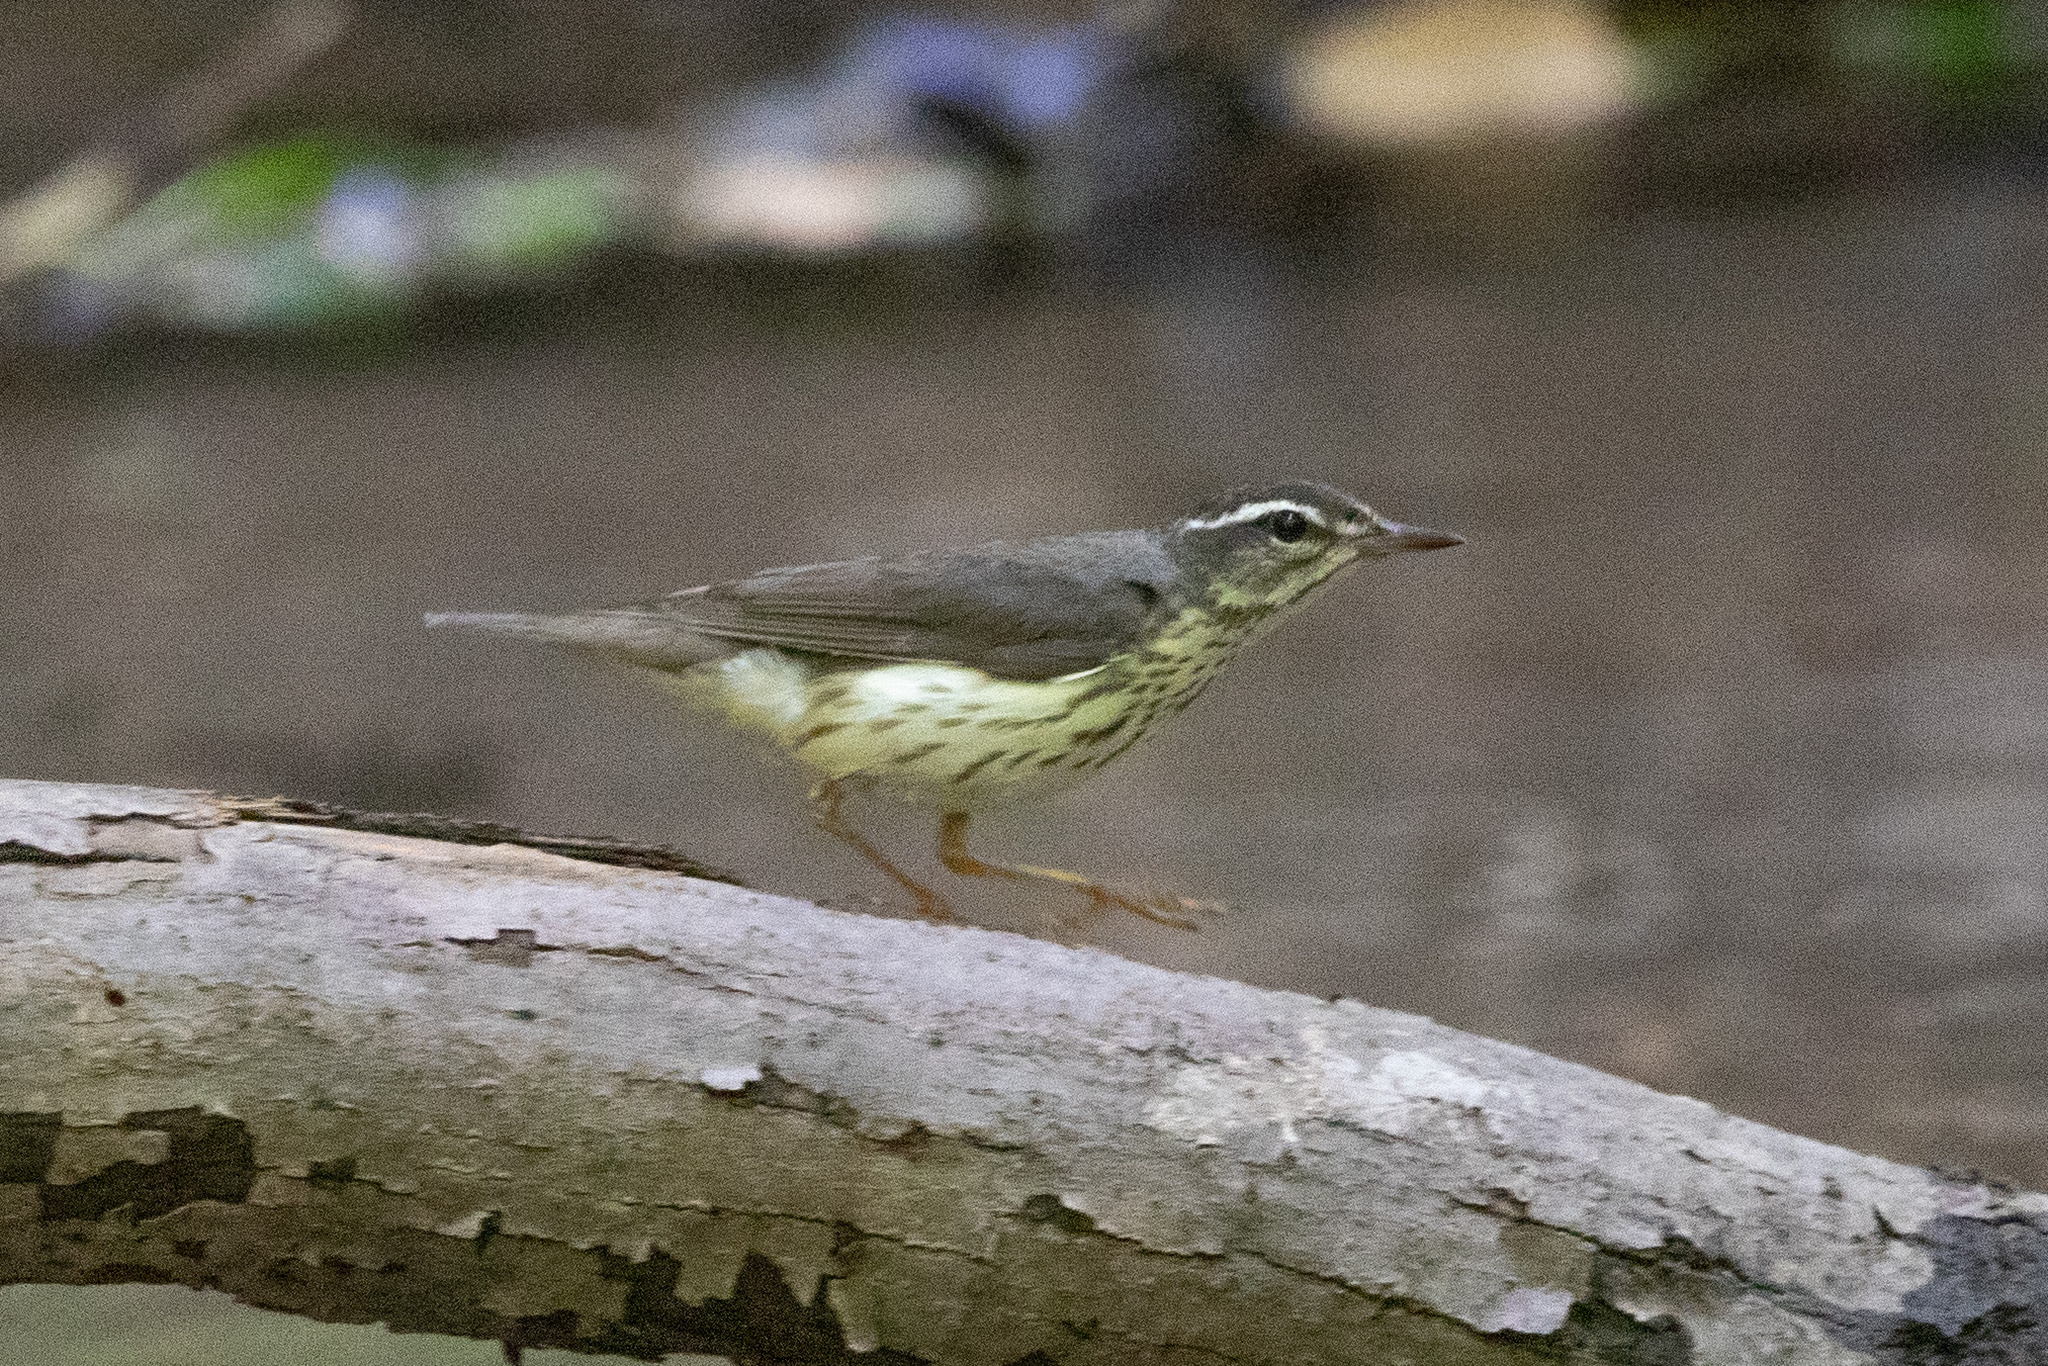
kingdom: Animalia
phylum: Chordata
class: Aves
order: Passeriformes
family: Parulidae
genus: Parkesia
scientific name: Parkesia motacilla
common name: Louisiana waterthrush
